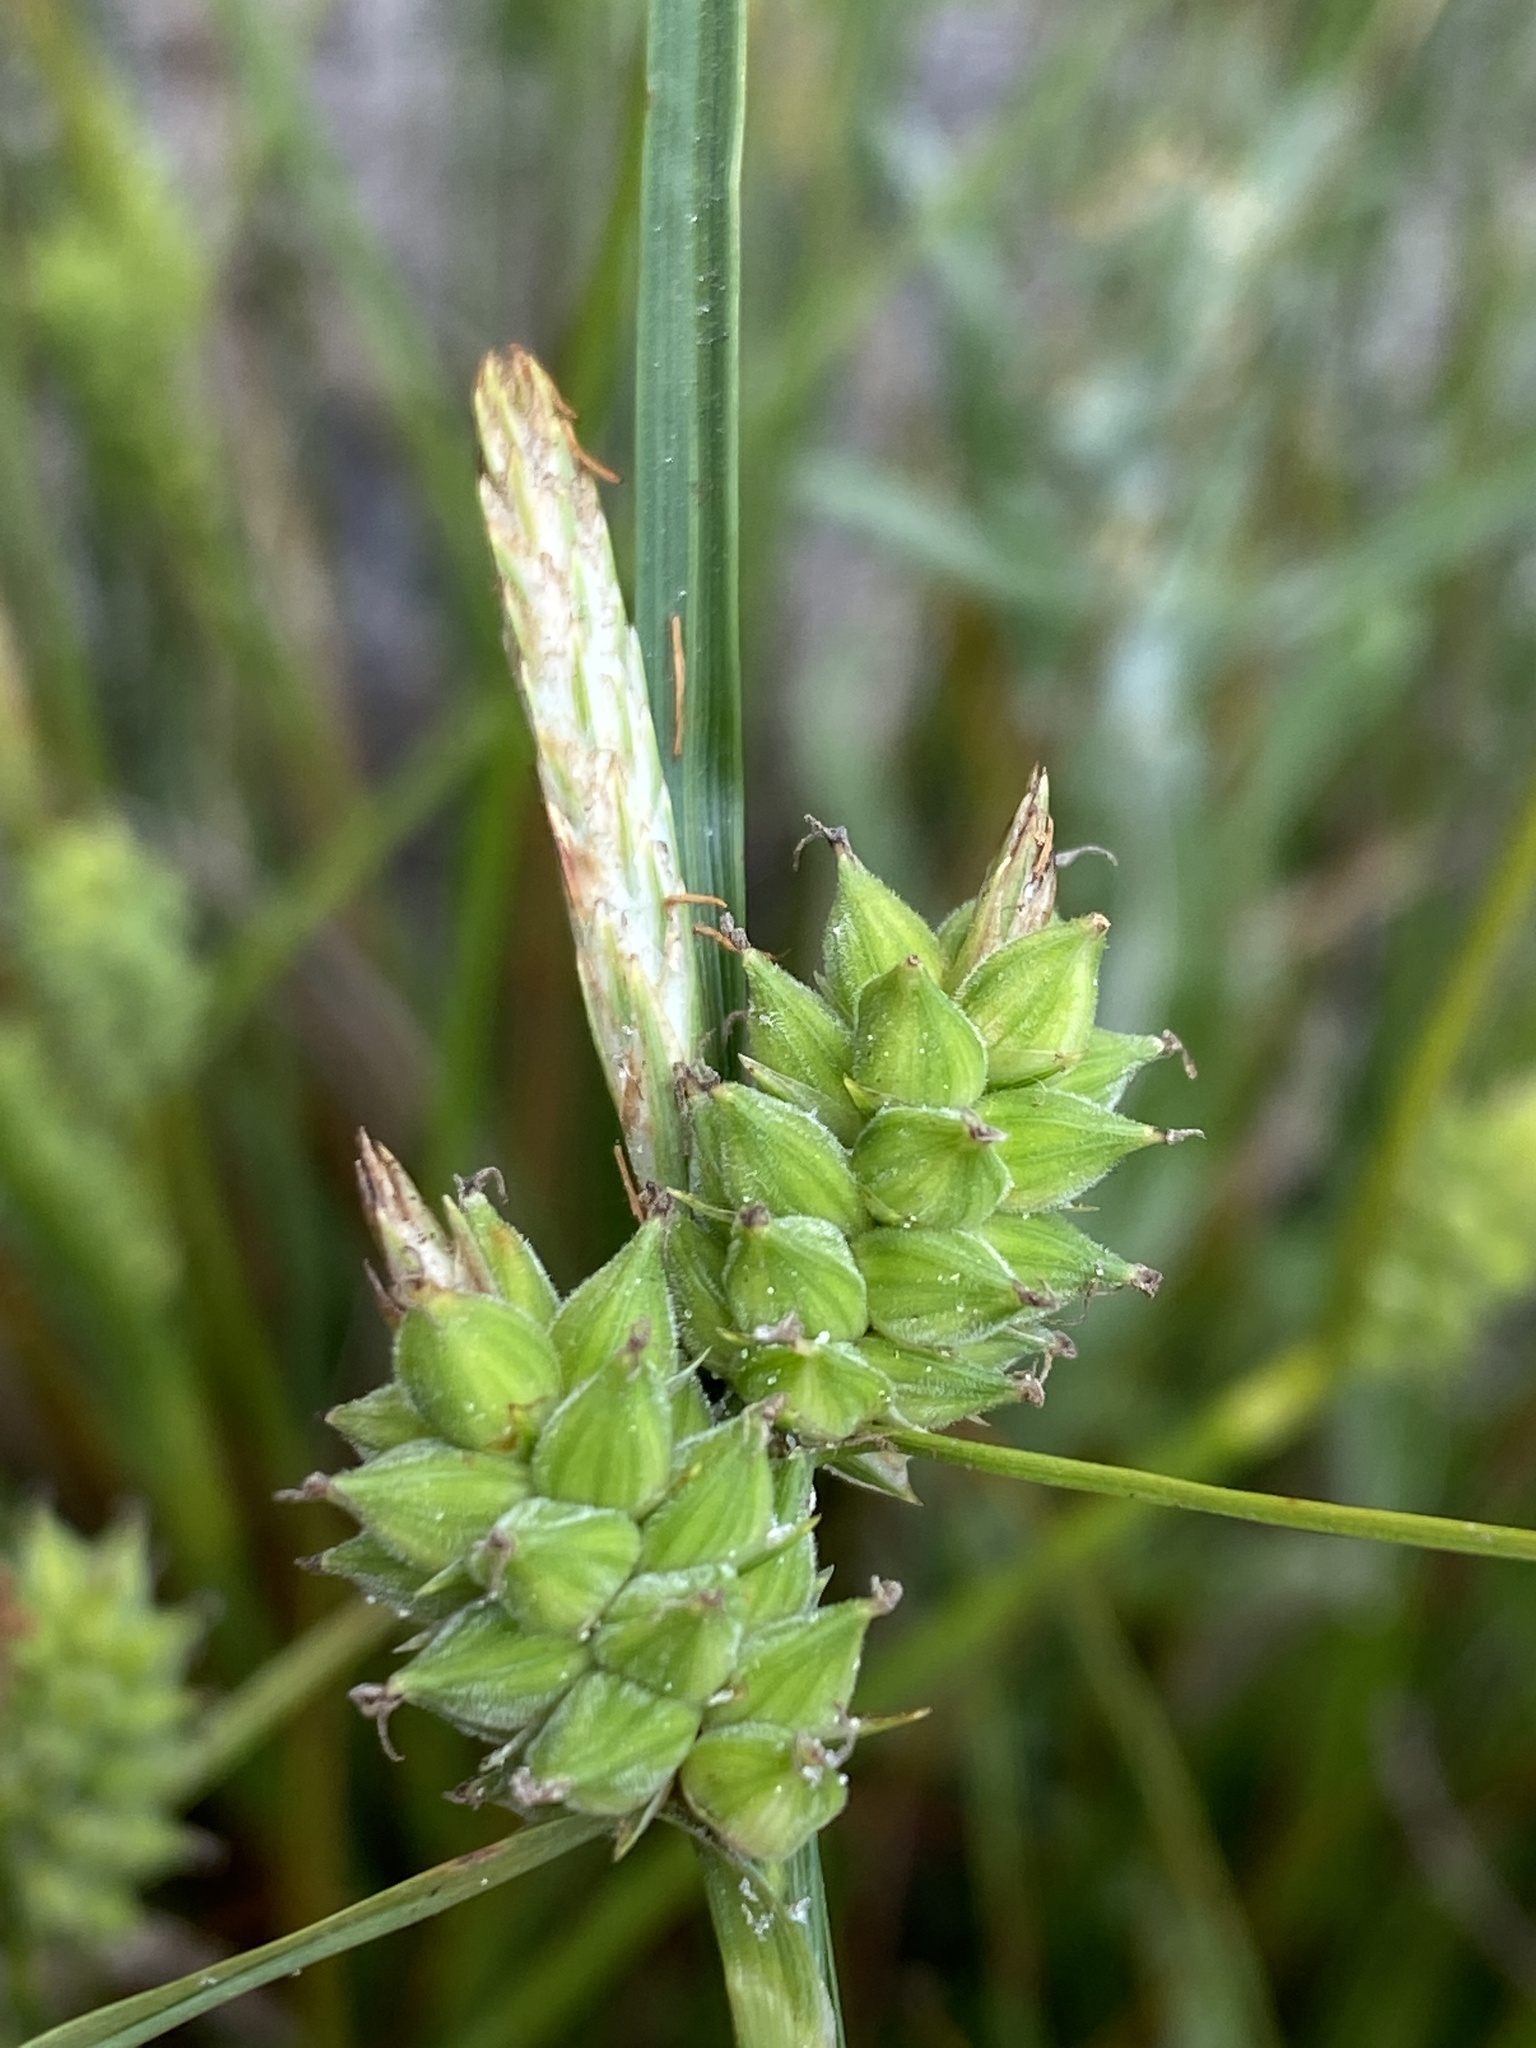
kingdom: Plantae
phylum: Tracheophyta
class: Liliopsida
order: Poales
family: Cyperaceae
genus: Carex
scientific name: Carex tenax
